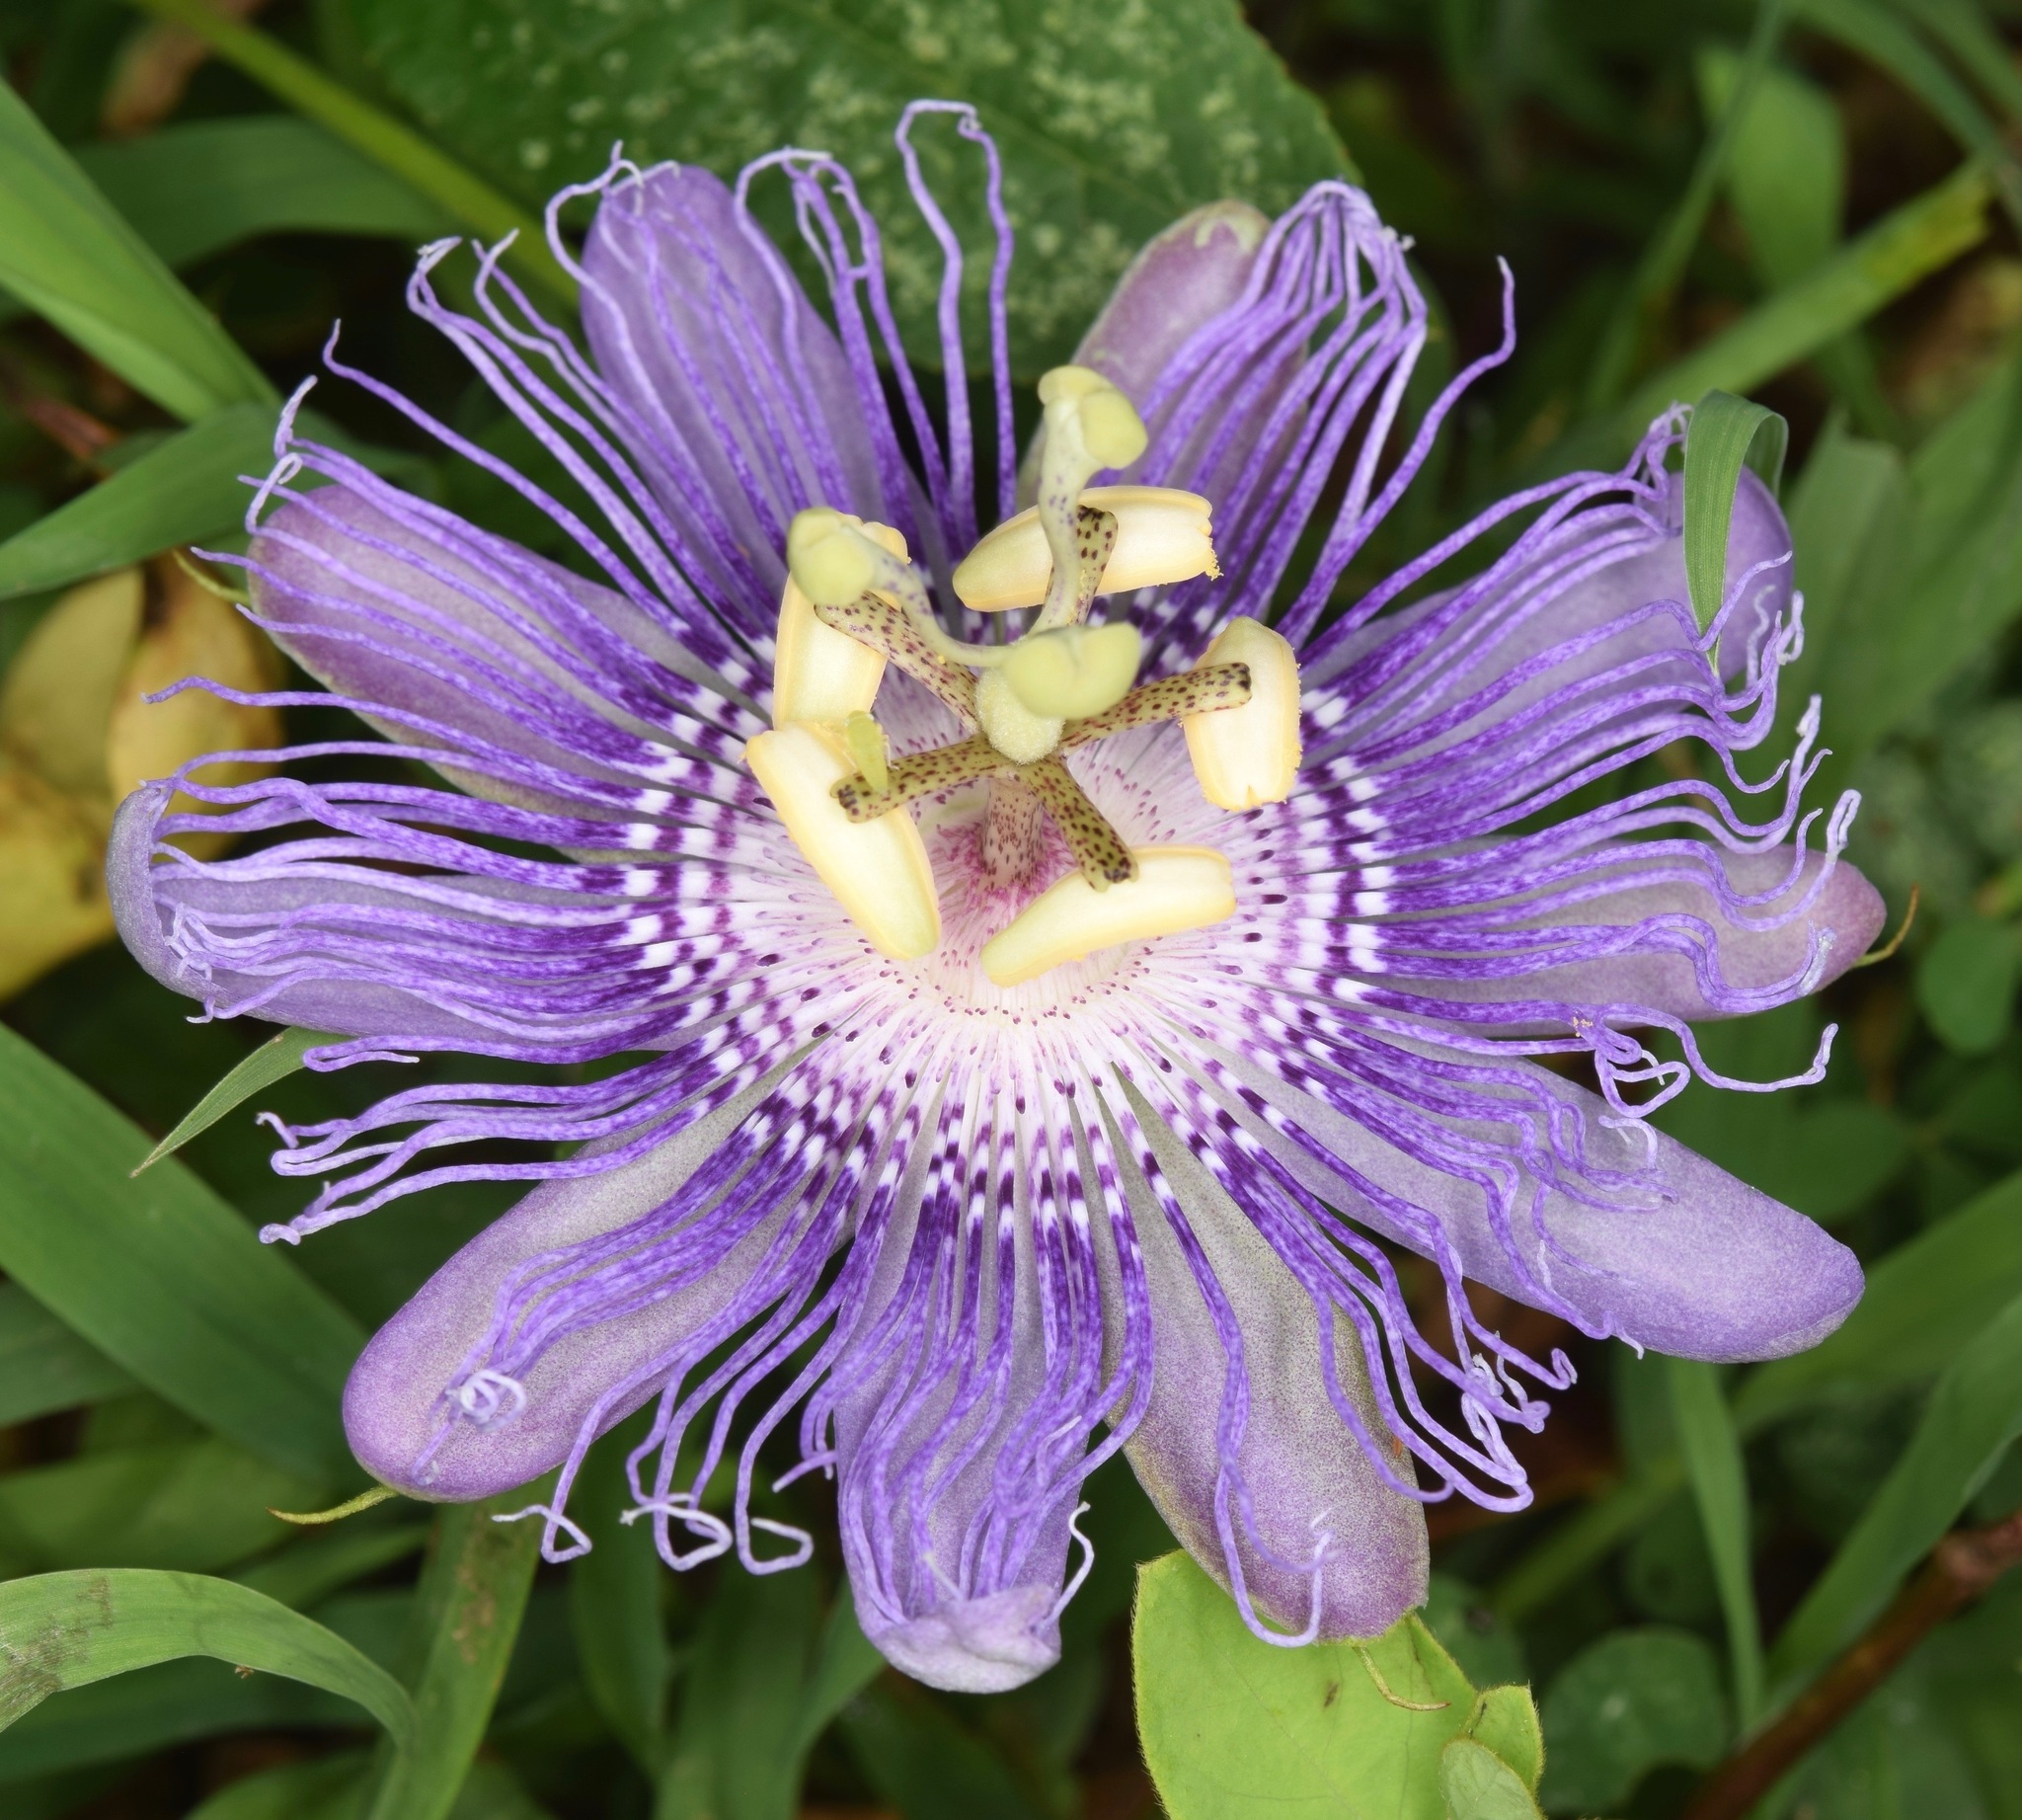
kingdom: Plantae
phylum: Tracheophyta
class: Magnoliopsida
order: Malpighiales
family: Passifloraceae
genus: Passiflora
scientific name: Passiflora incarnata
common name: Apricot-vine
